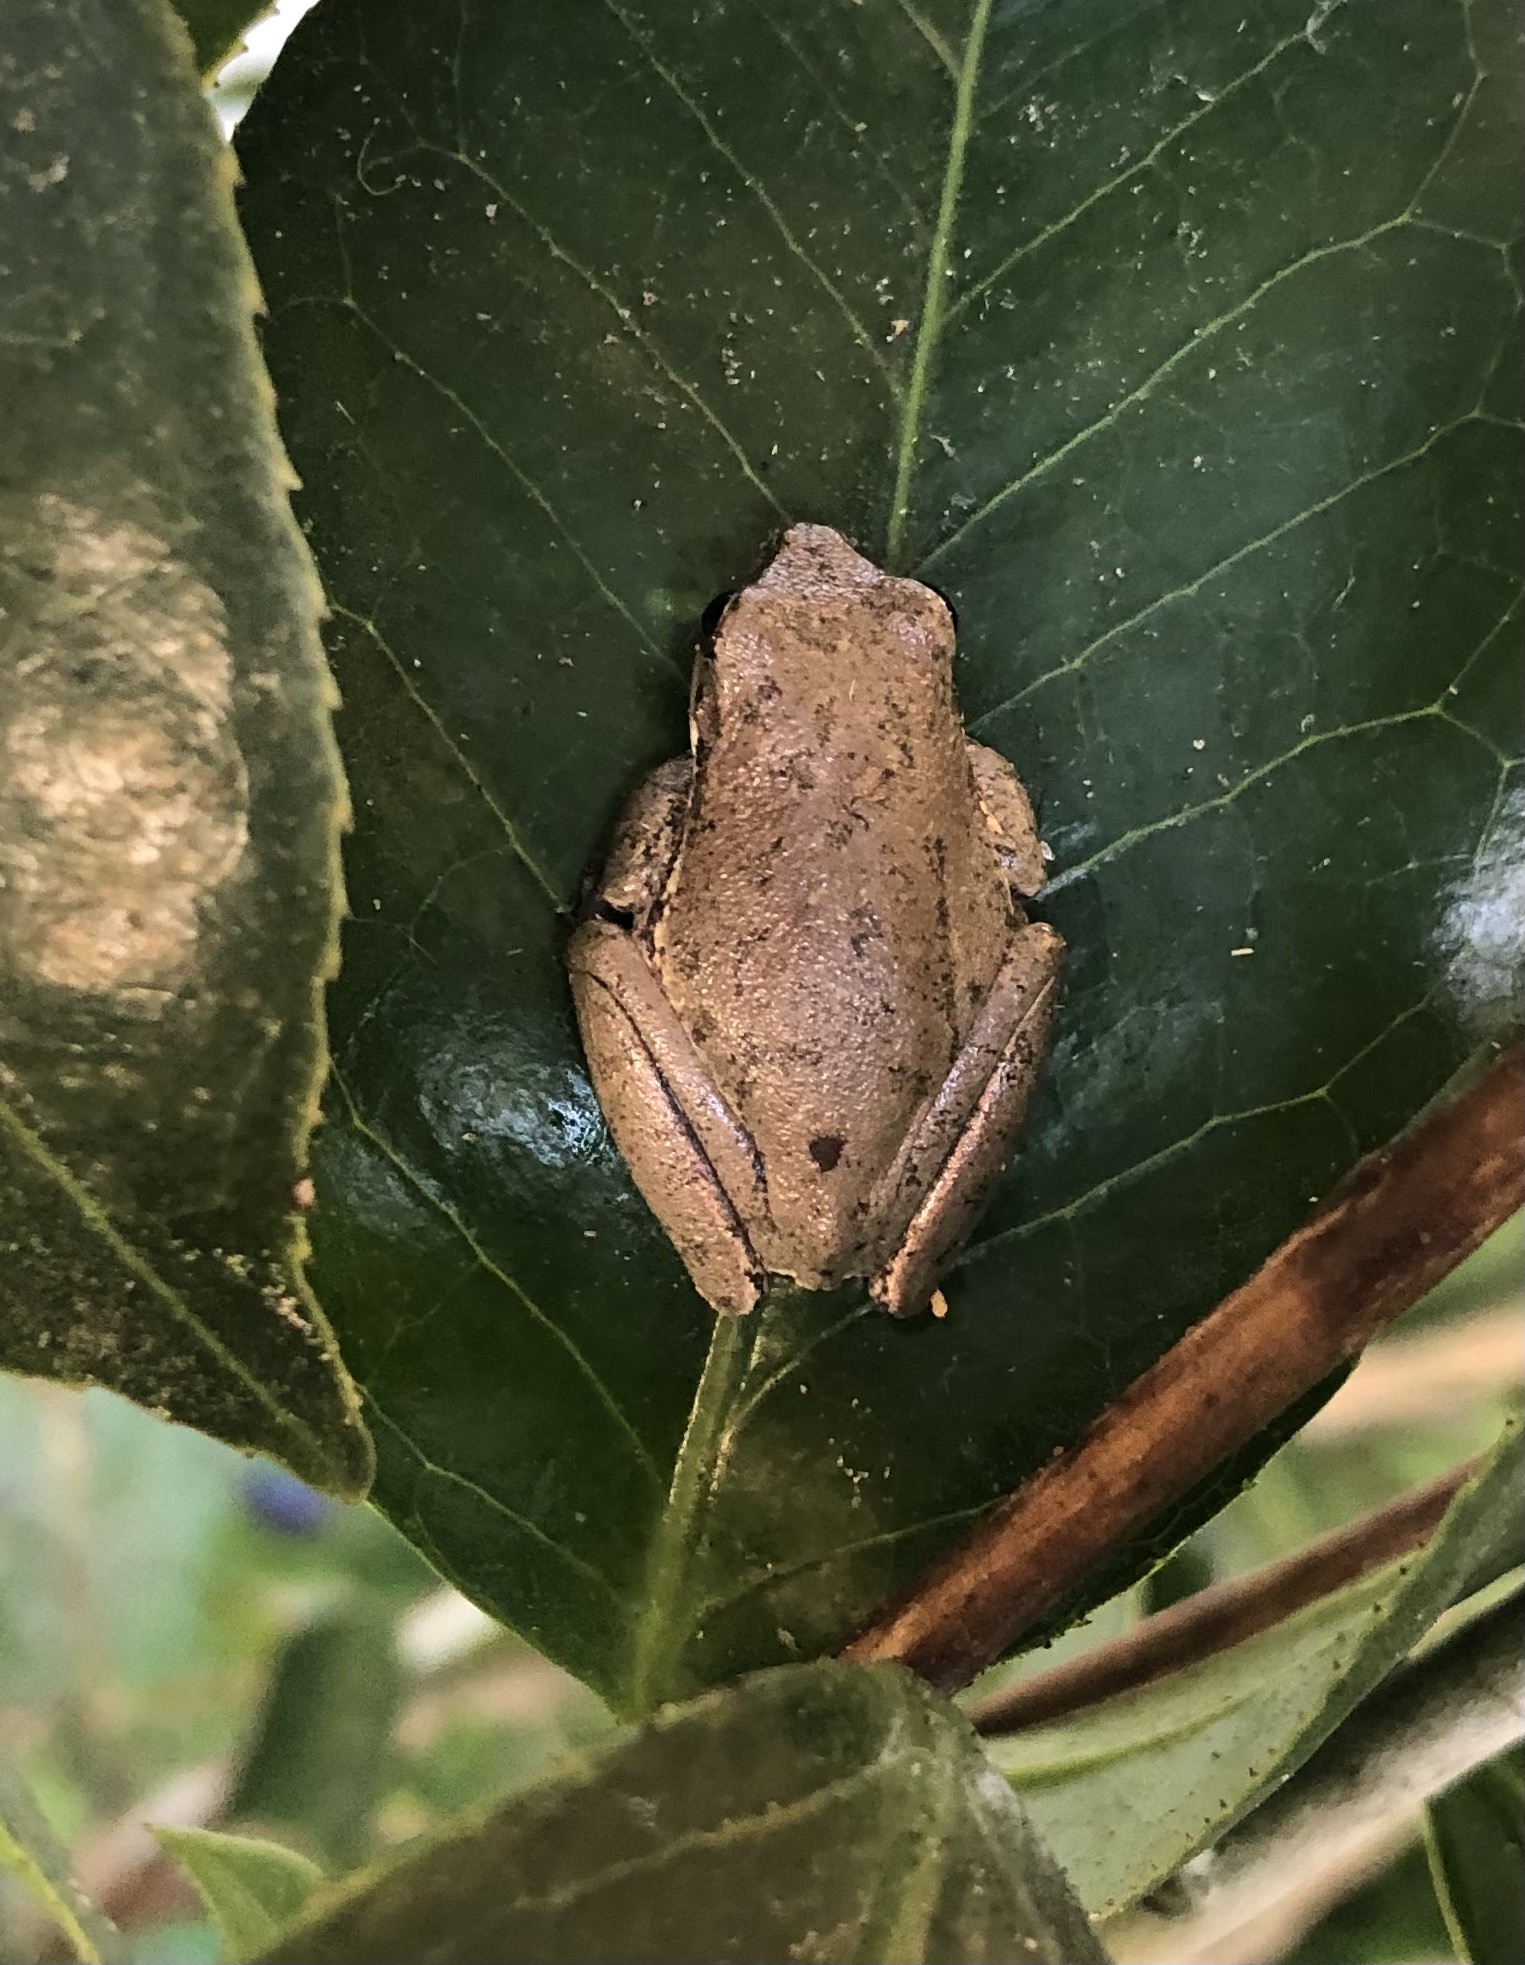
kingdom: Animalia
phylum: Chordata
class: Amphibia
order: Anura
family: Hylidae
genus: Dryophytes
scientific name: Dryophytes squirellus
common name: Squirrel treefrog
